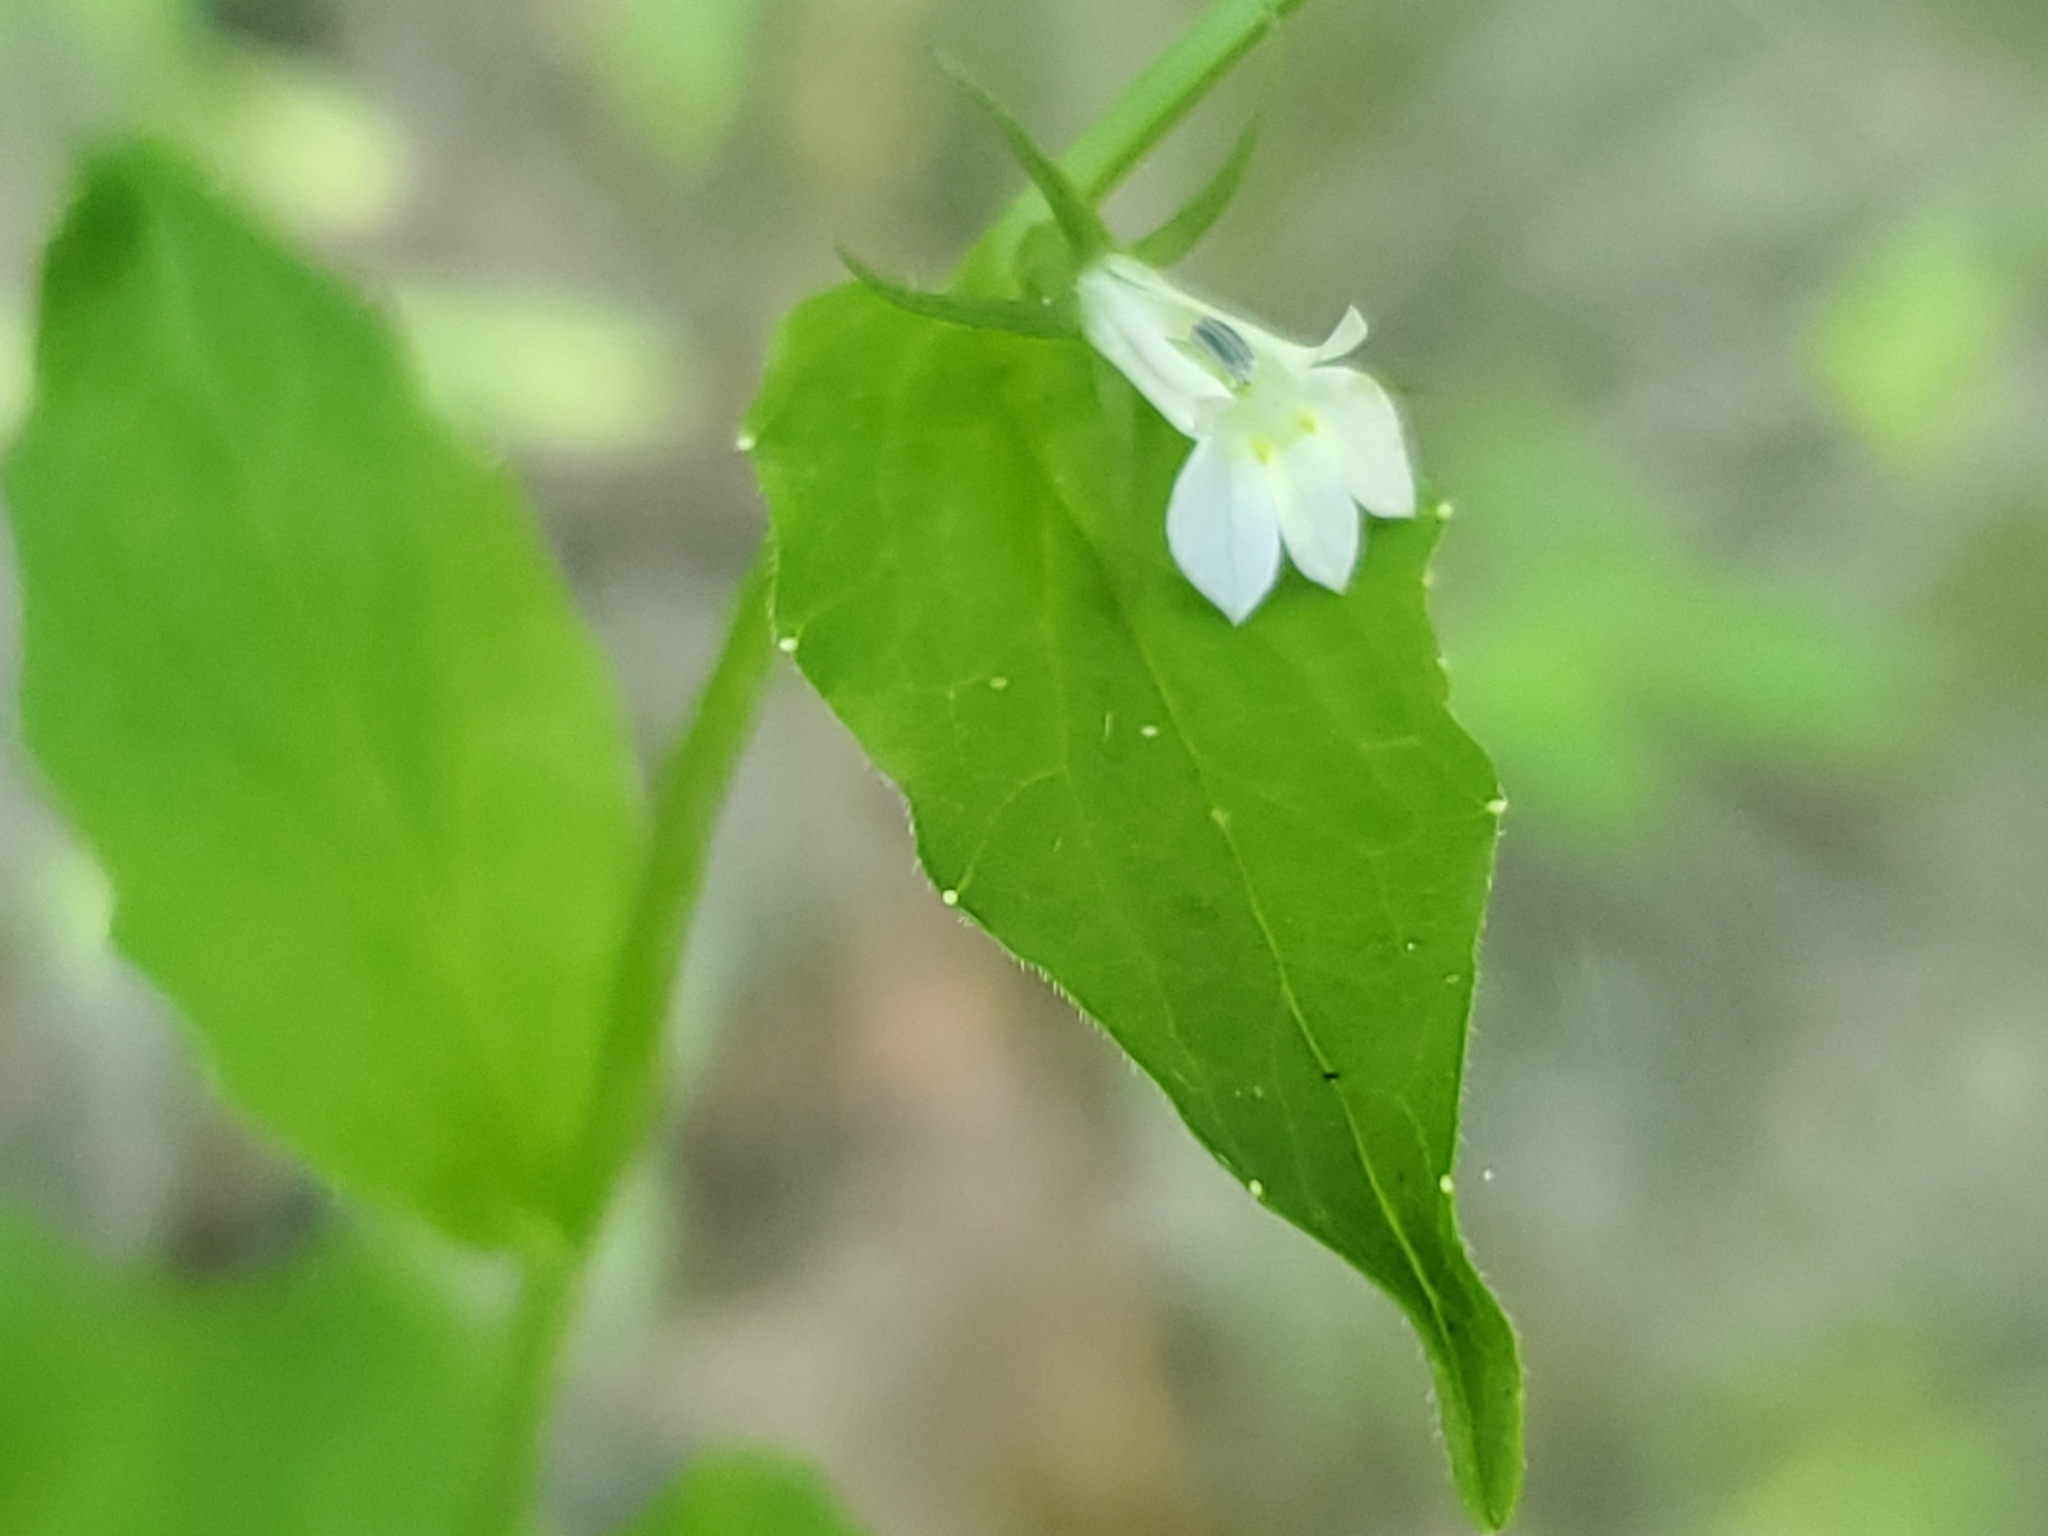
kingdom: Plantae
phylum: Tracheophyta
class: Magnoliopsida
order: Asterales
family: Campanulaceae
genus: Lobelia
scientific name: Lobelia inflata
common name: Indian tobacco
